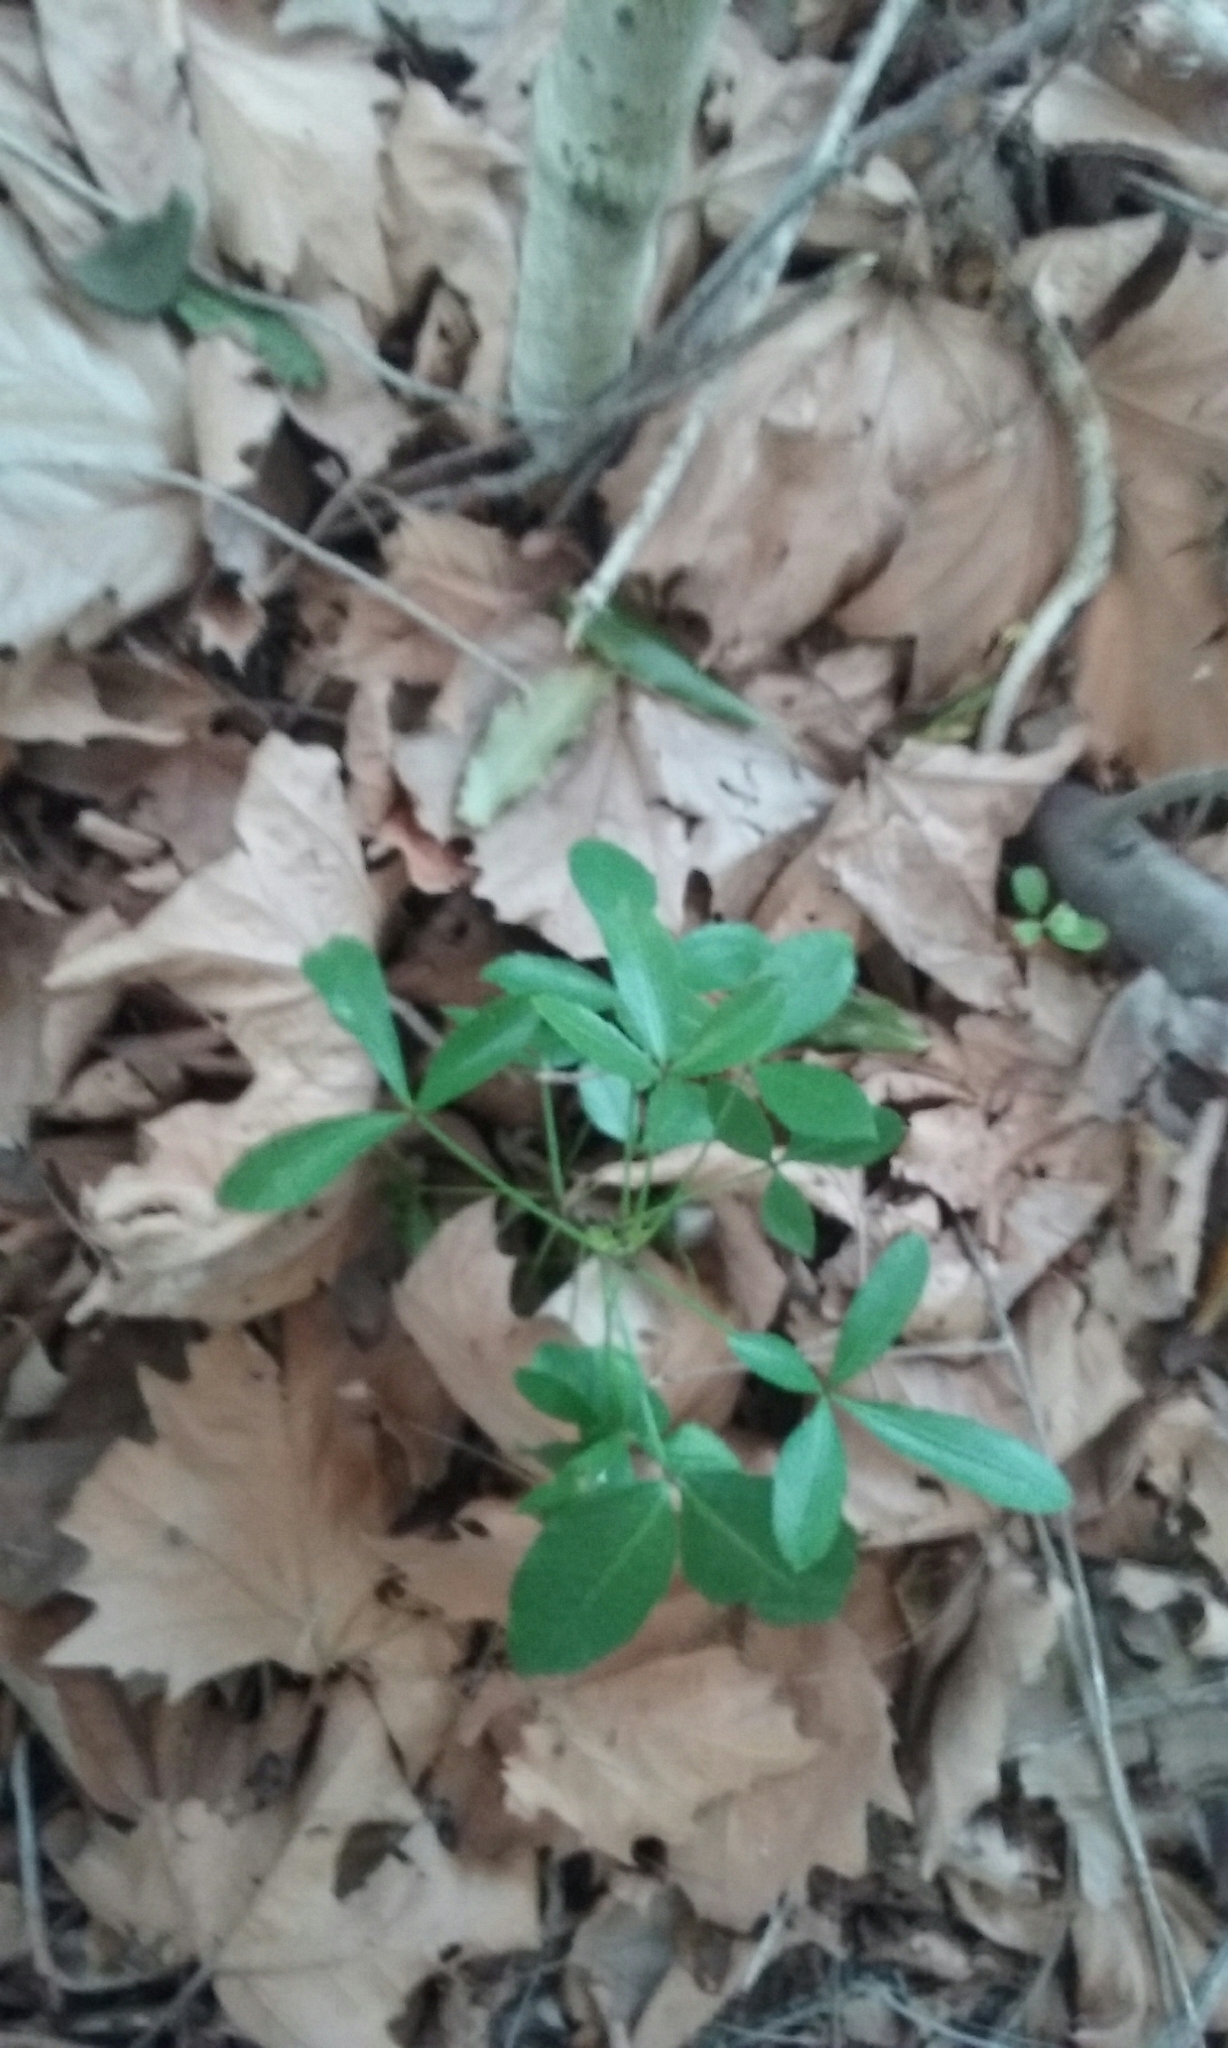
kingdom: Plantae
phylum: Tracheophyta
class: Magnoliopsida
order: Apiales
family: Araliaceae
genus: Pseudopanax
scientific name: Pseudopanax lessonii
